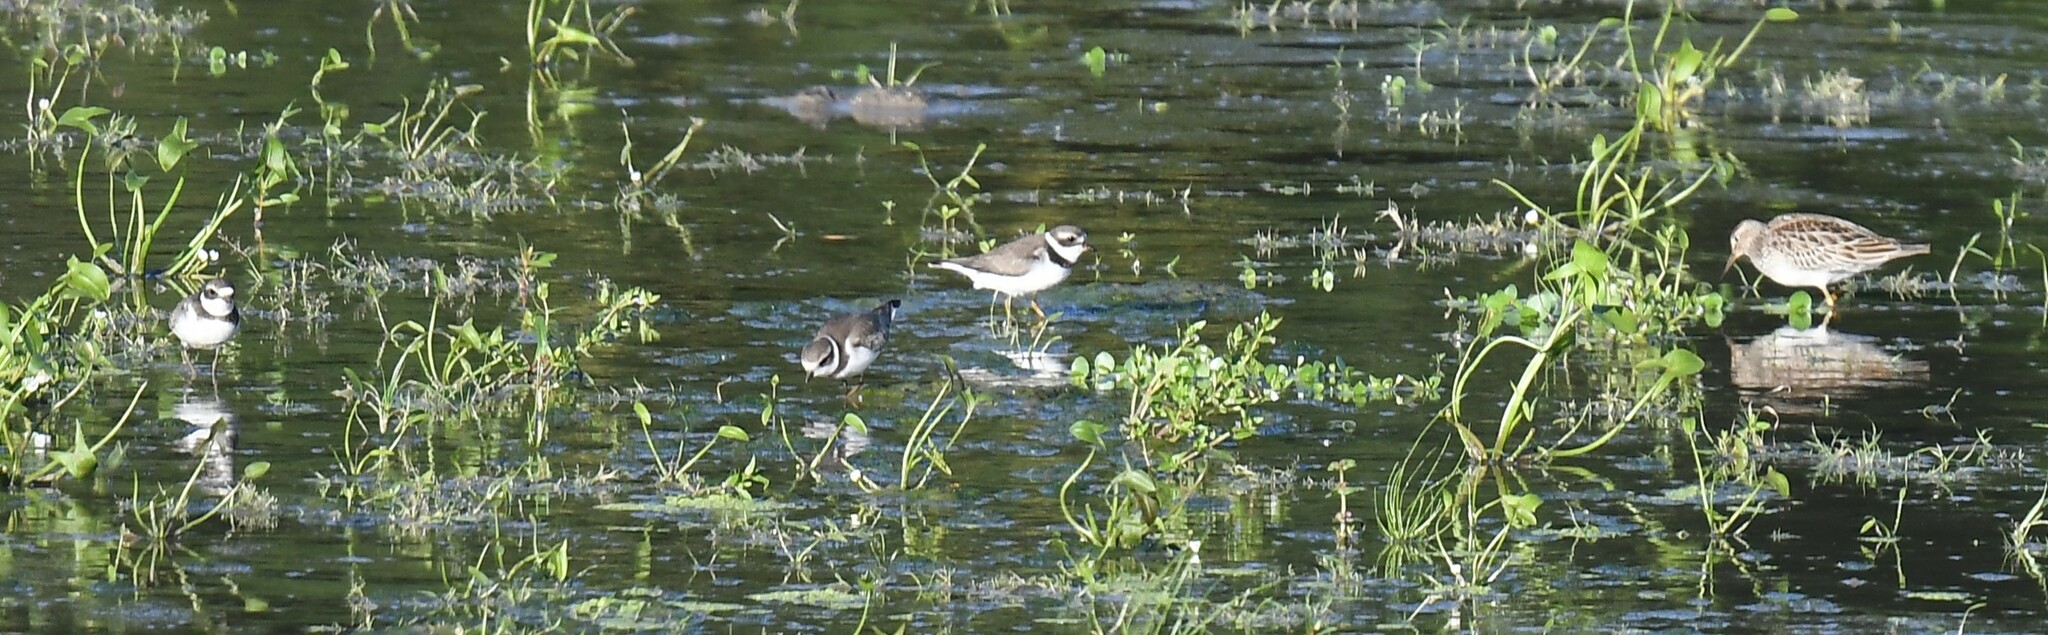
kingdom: Animalia
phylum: Chordata
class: Aves
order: Charadriiformes
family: Charadriidae
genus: Charadrius
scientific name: Charadrius semipalmatus
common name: Semipalmated plover
